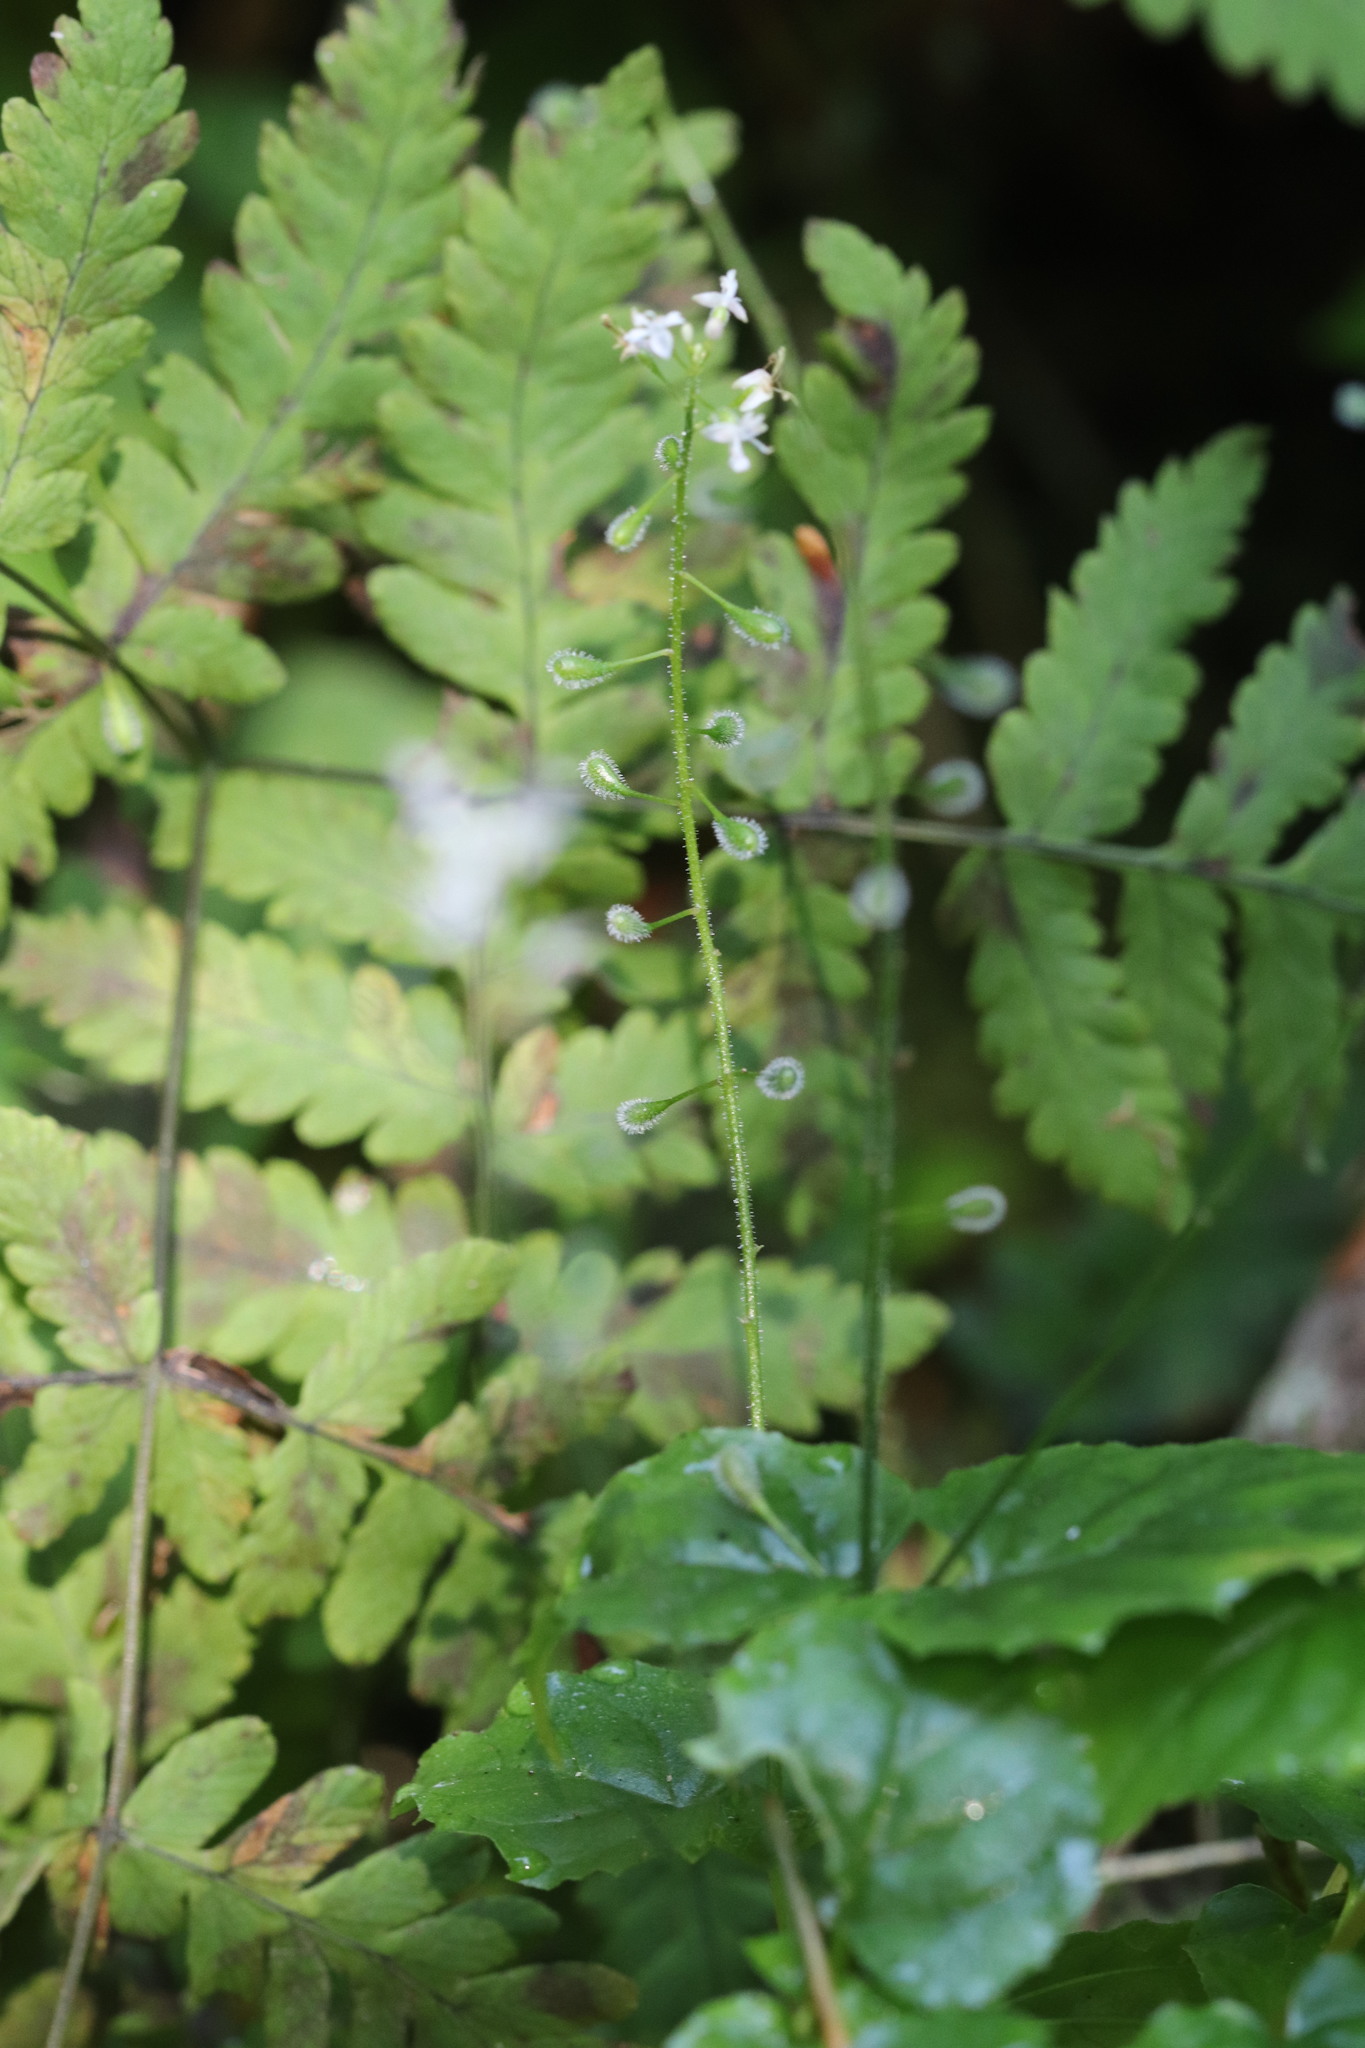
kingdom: Plantae
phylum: Tracheophyta
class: Magnoliopsida
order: Myrtales
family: Onagraceae
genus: Circaea
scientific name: Circaea alpina
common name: Alpine enchanter's-nightshade
